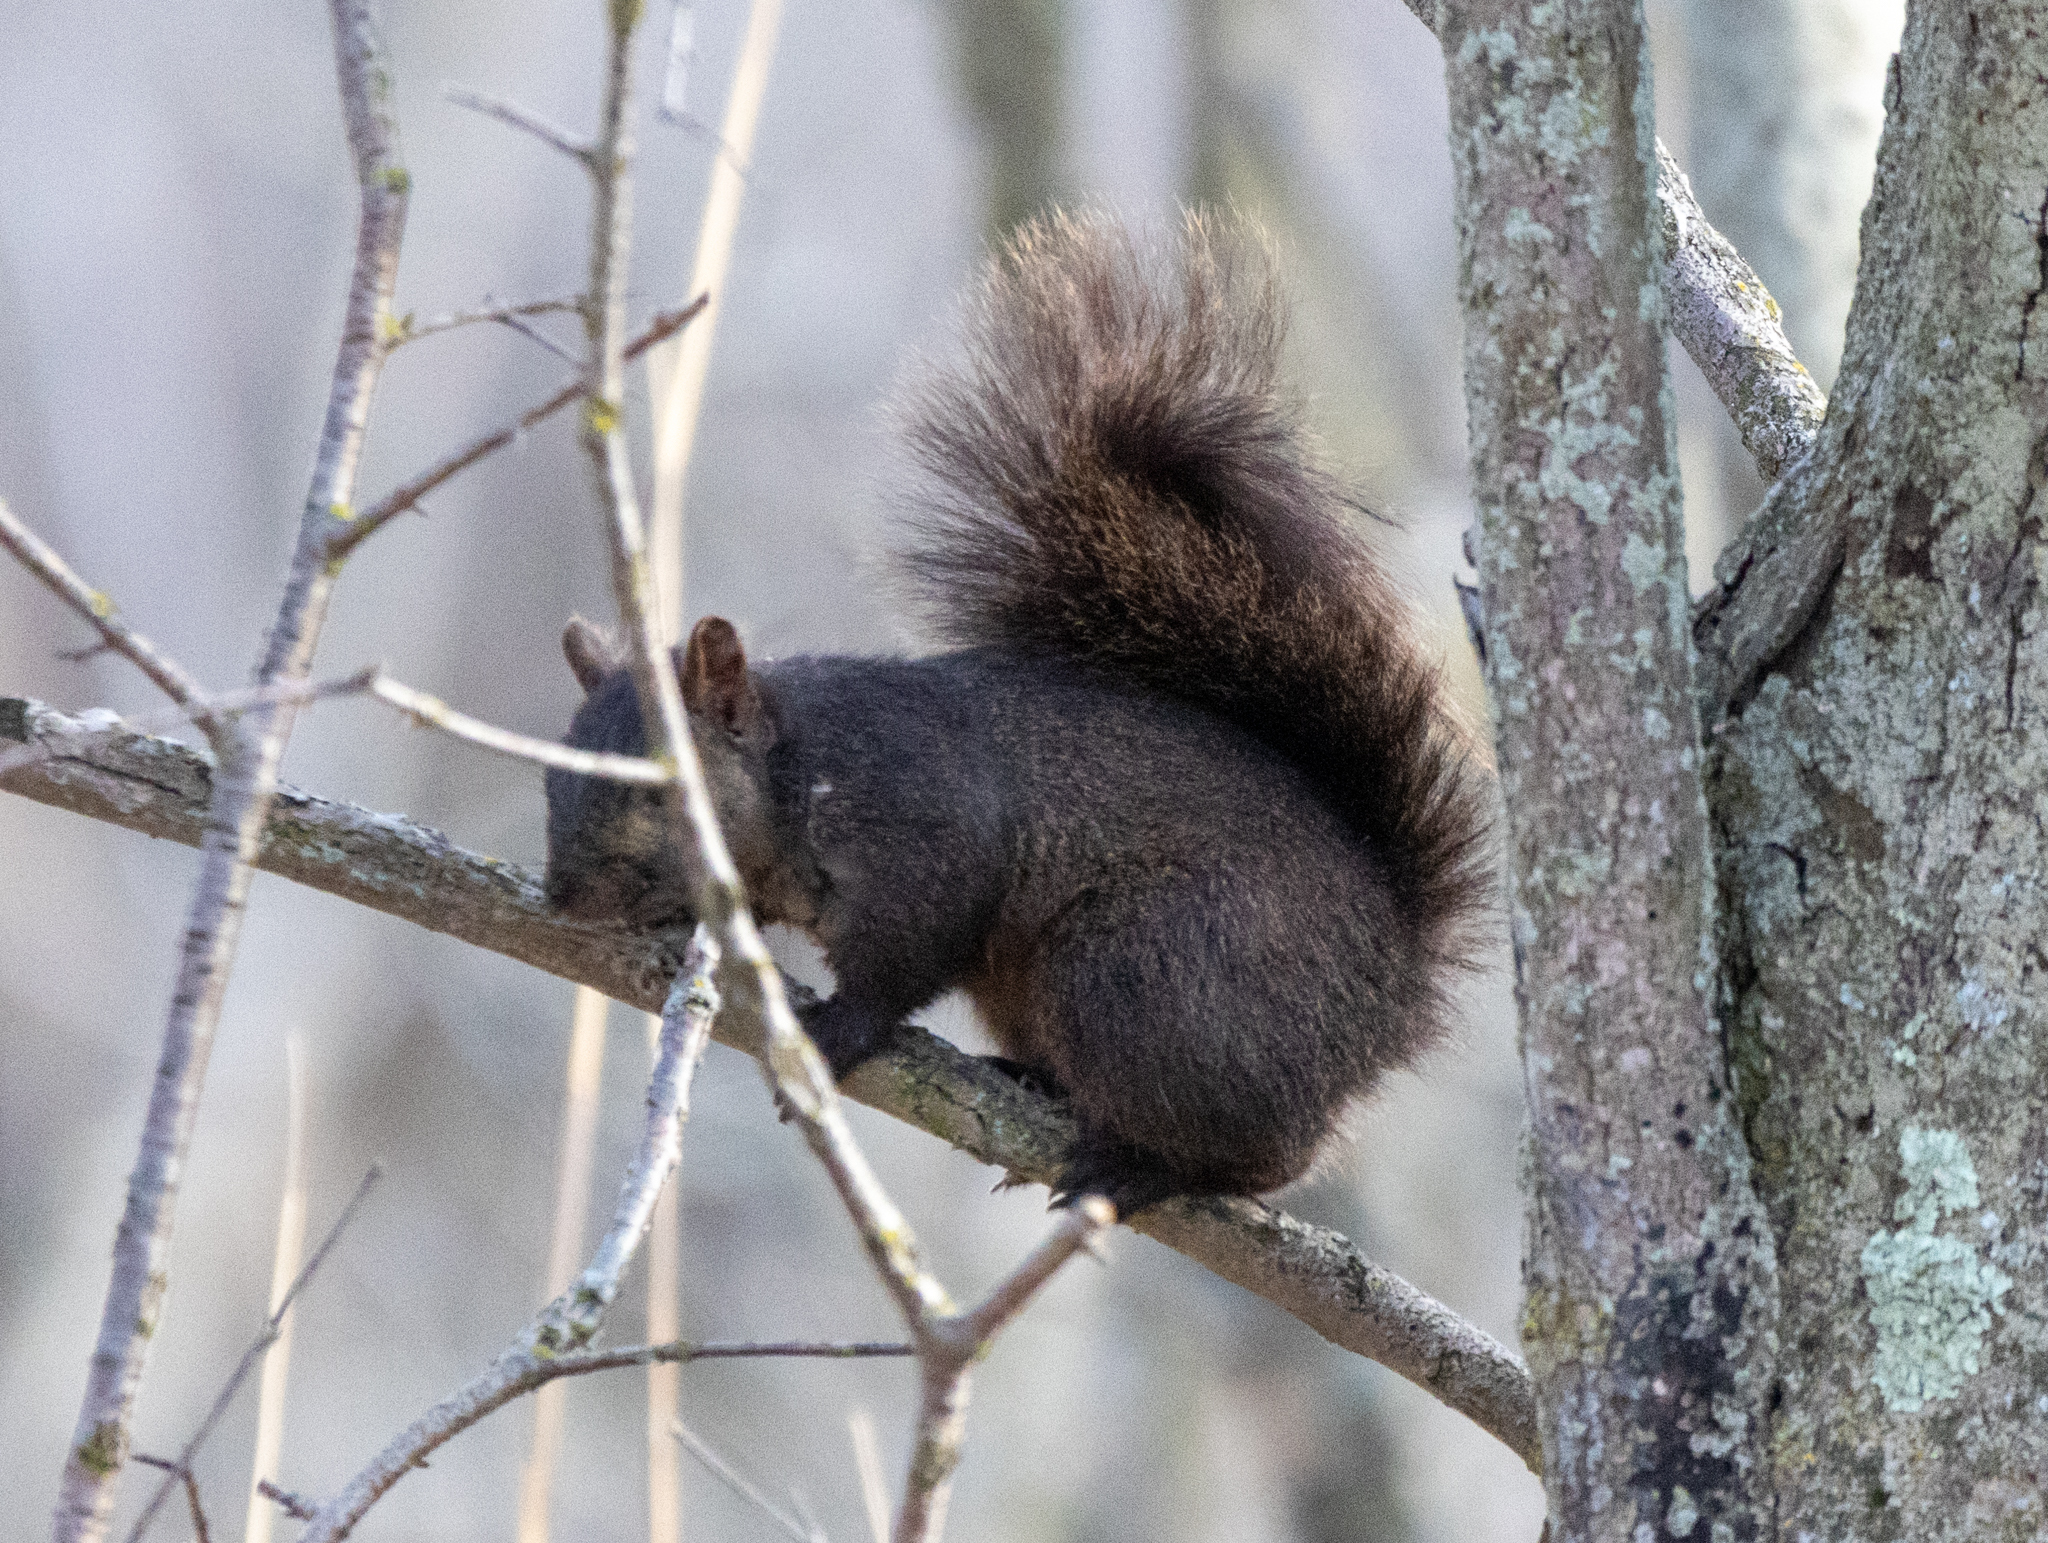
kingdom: Animalia
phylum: Chordata
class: Mammalia
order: Rodentia
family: Sciuridae
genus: Sciurus
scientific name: Sciurus carolinensis
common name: Eastern gray squirrel
